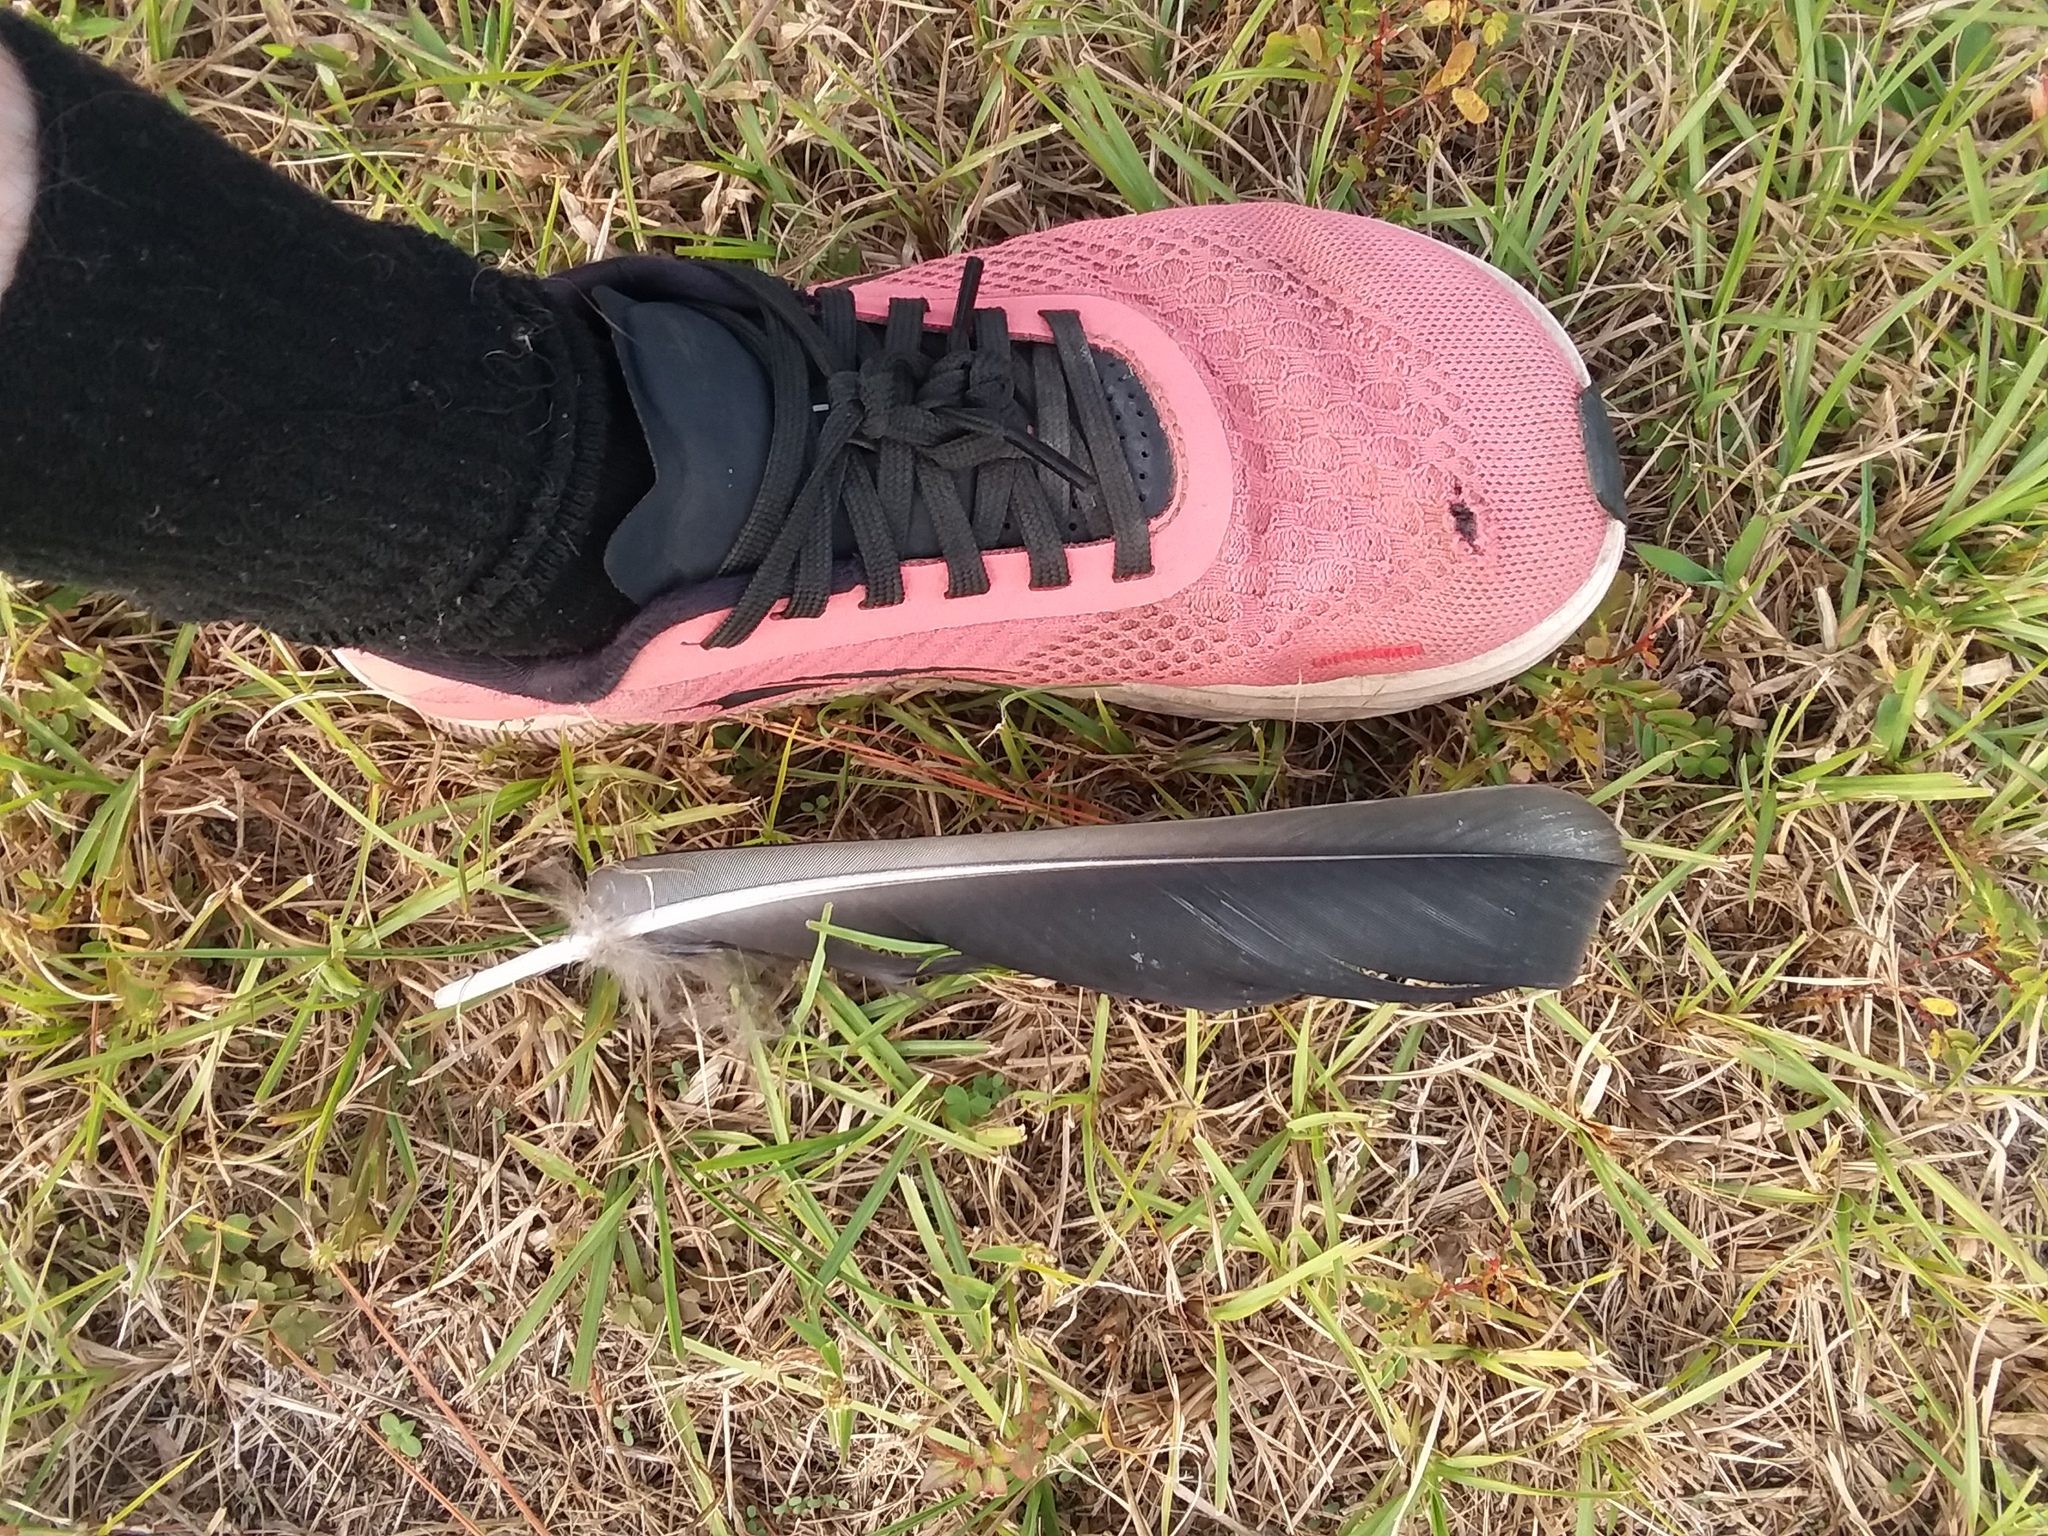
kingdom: Animalia
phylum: Chordata
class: Aves
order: Accipitriformes
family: Cathartidae
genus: Coragyps
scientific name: Coragyps atratus
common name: Black vulture
